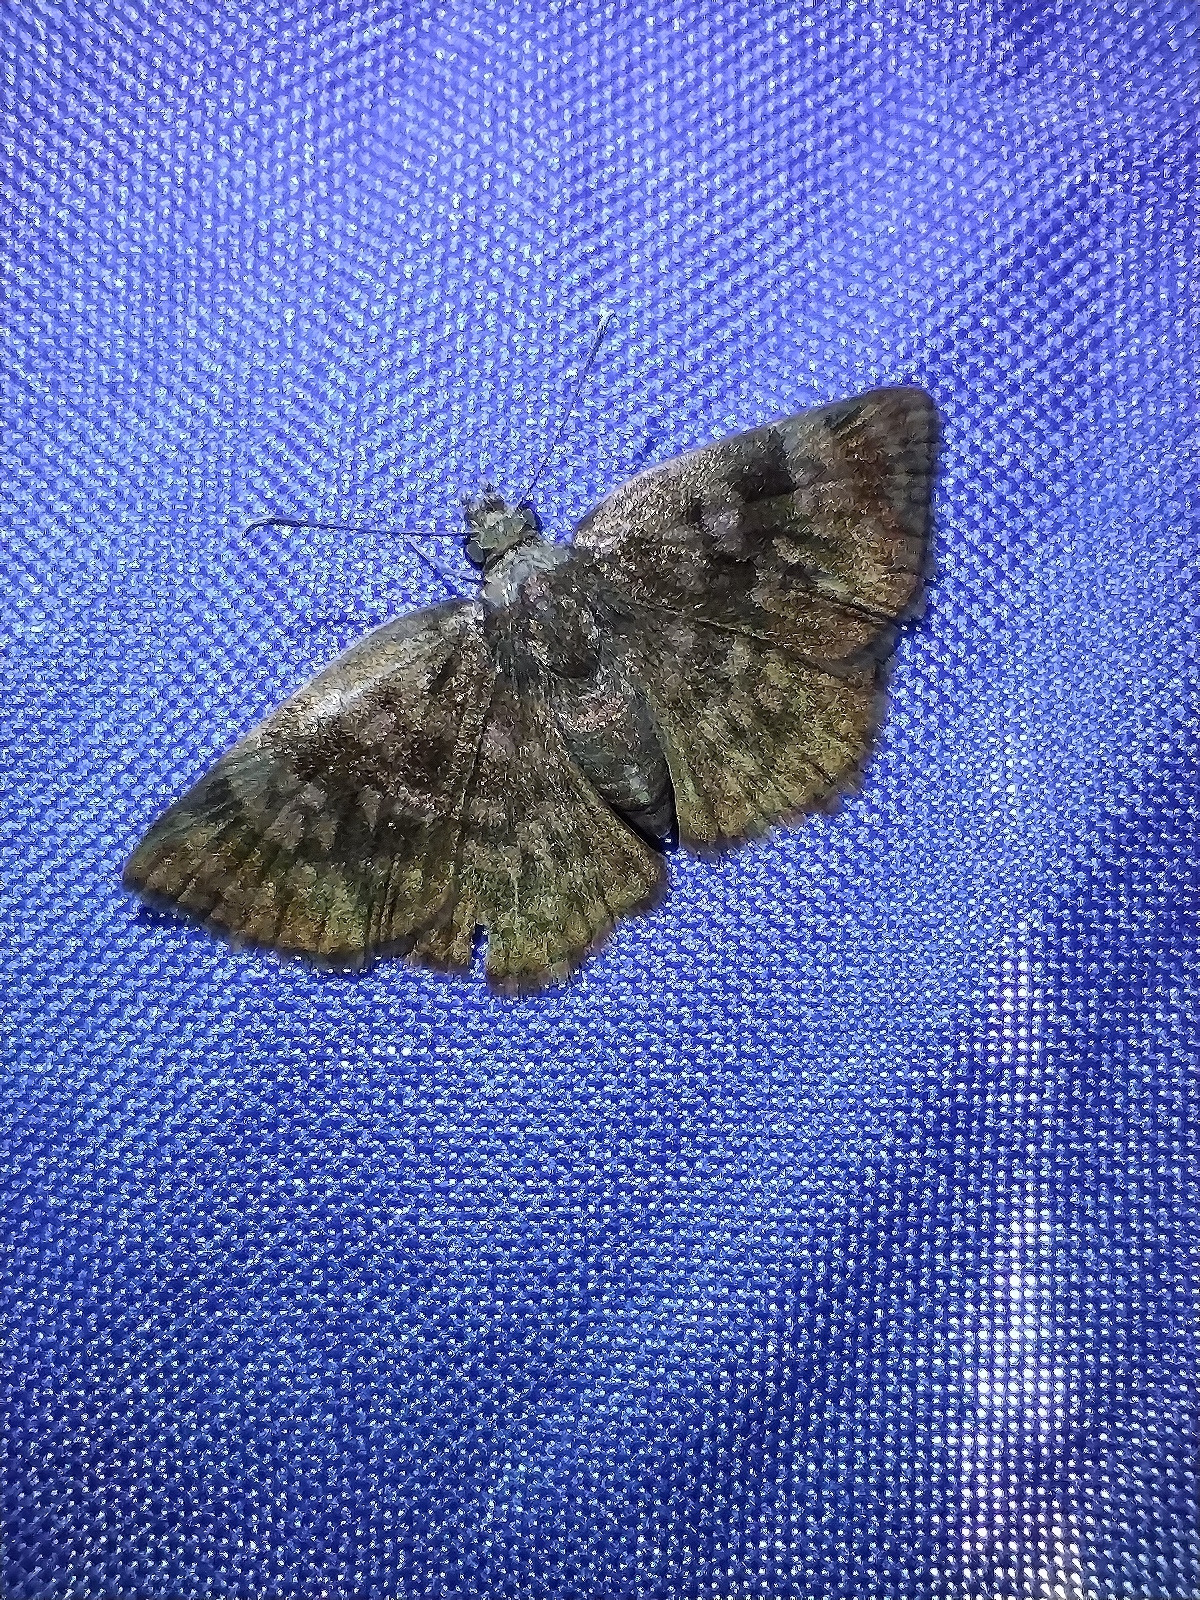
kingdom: Animalia
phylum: Arthropoda
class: Insecta
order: Lepidoptera
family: Hesperiidae
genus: Viola
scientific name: Viola violella
